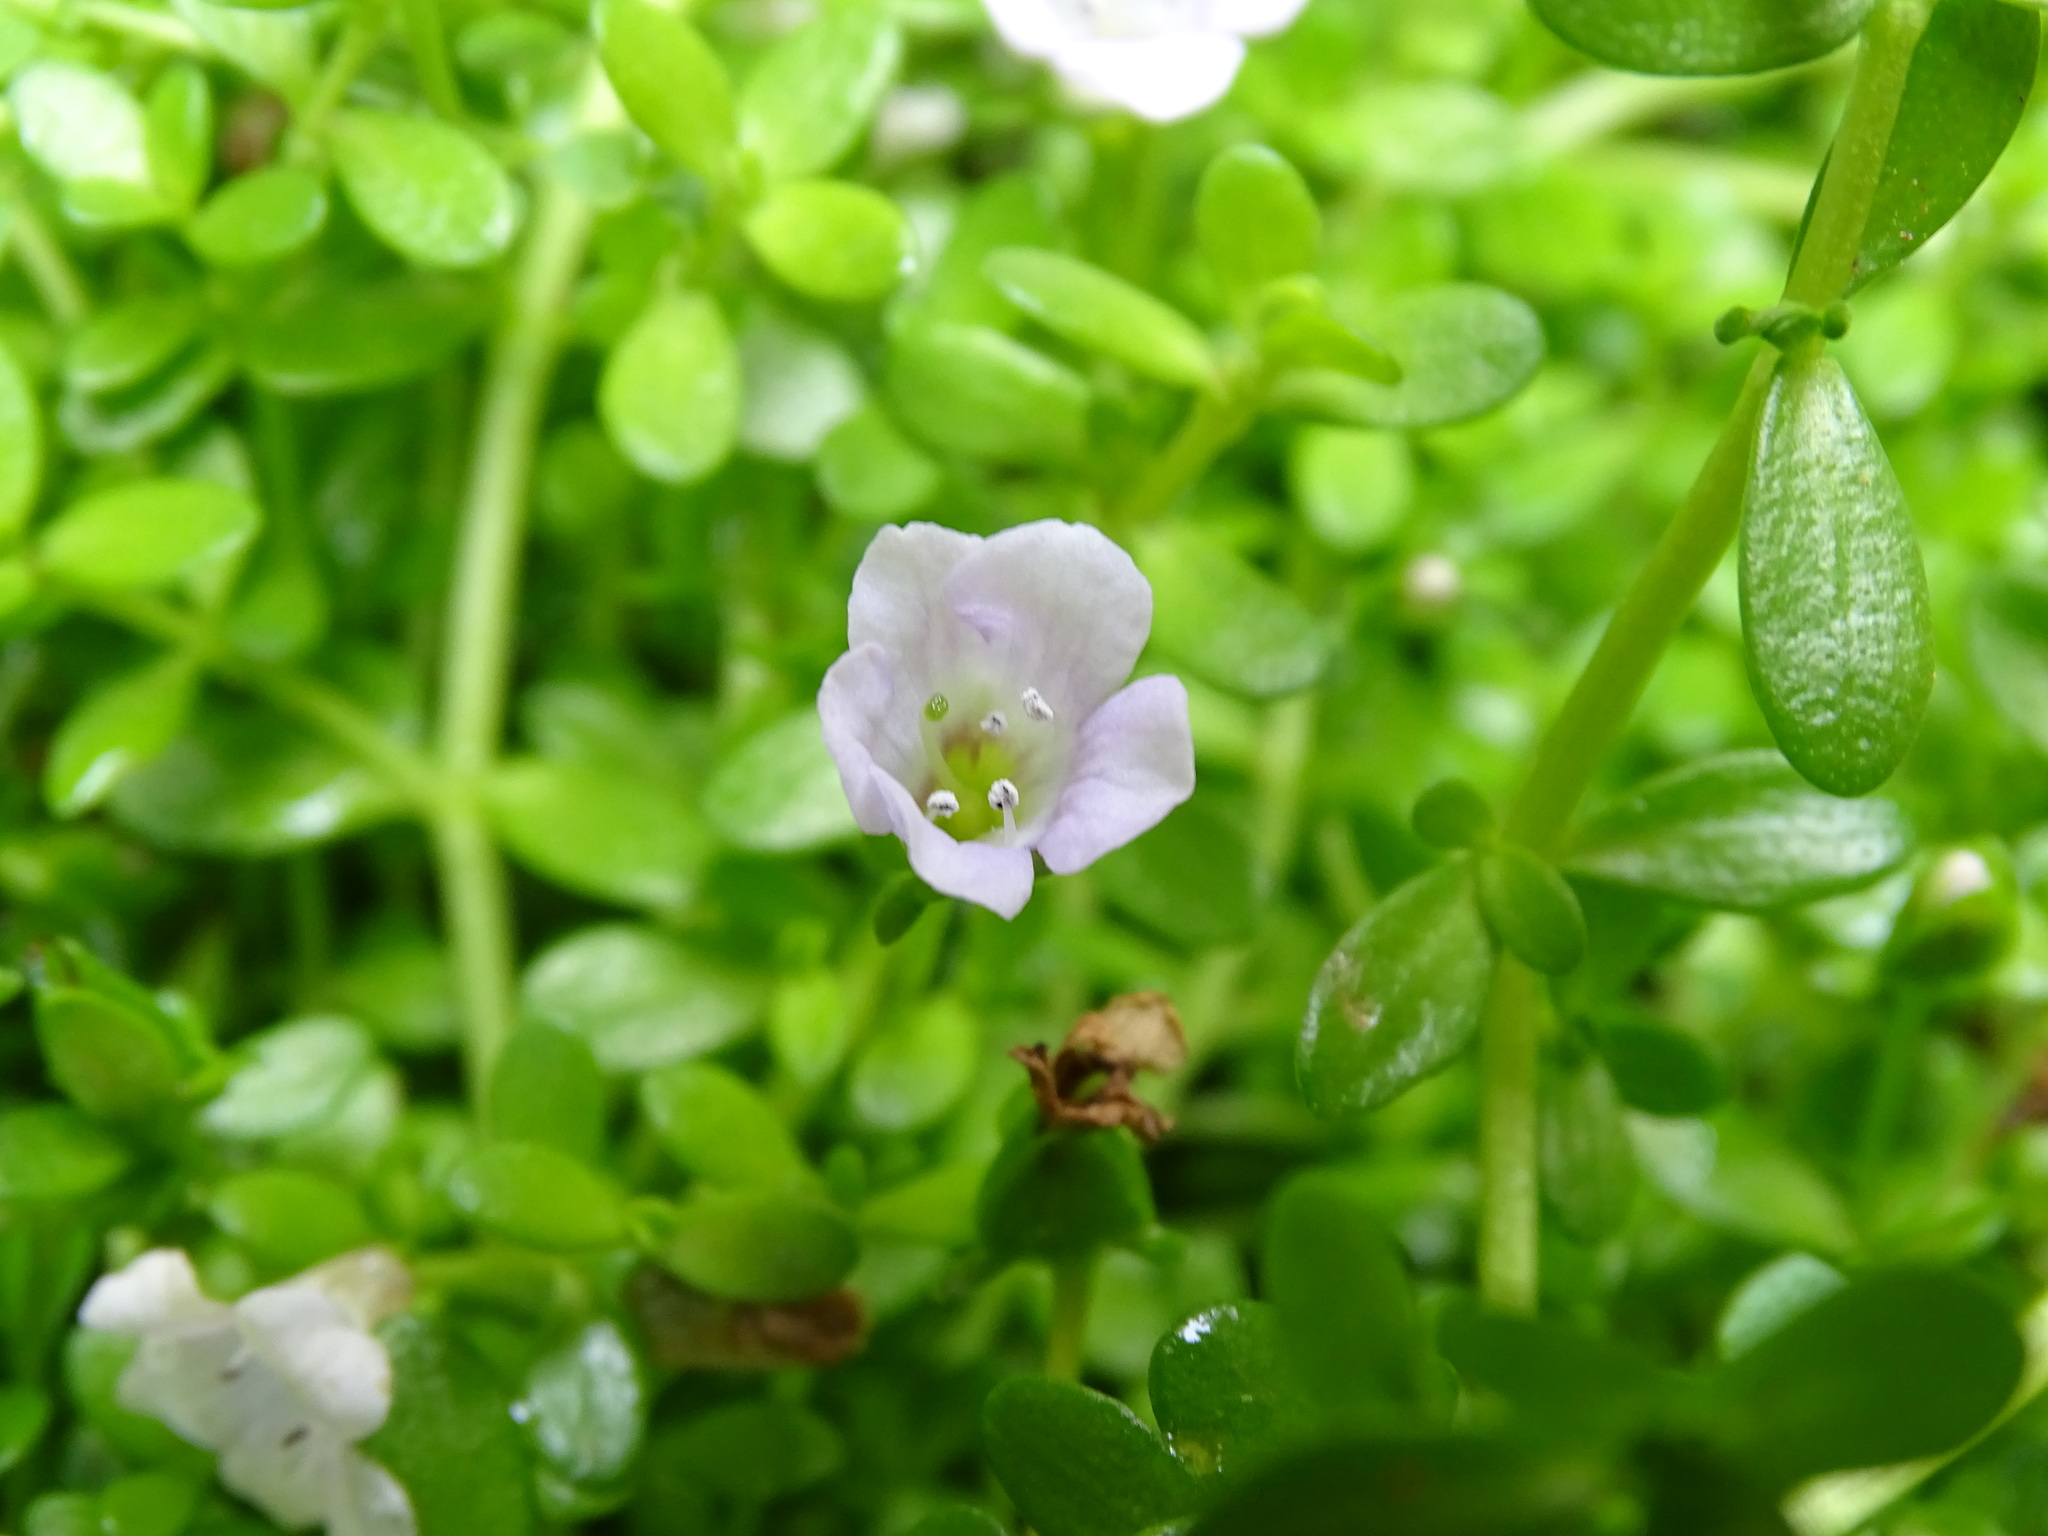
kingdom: Plantae
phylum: Tracheophyta
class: Magnoliopsida
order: Lamiales
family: Plantaginaceae
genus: Bacopa
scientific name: Bacopa monnieri
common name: Indian-pennywort
